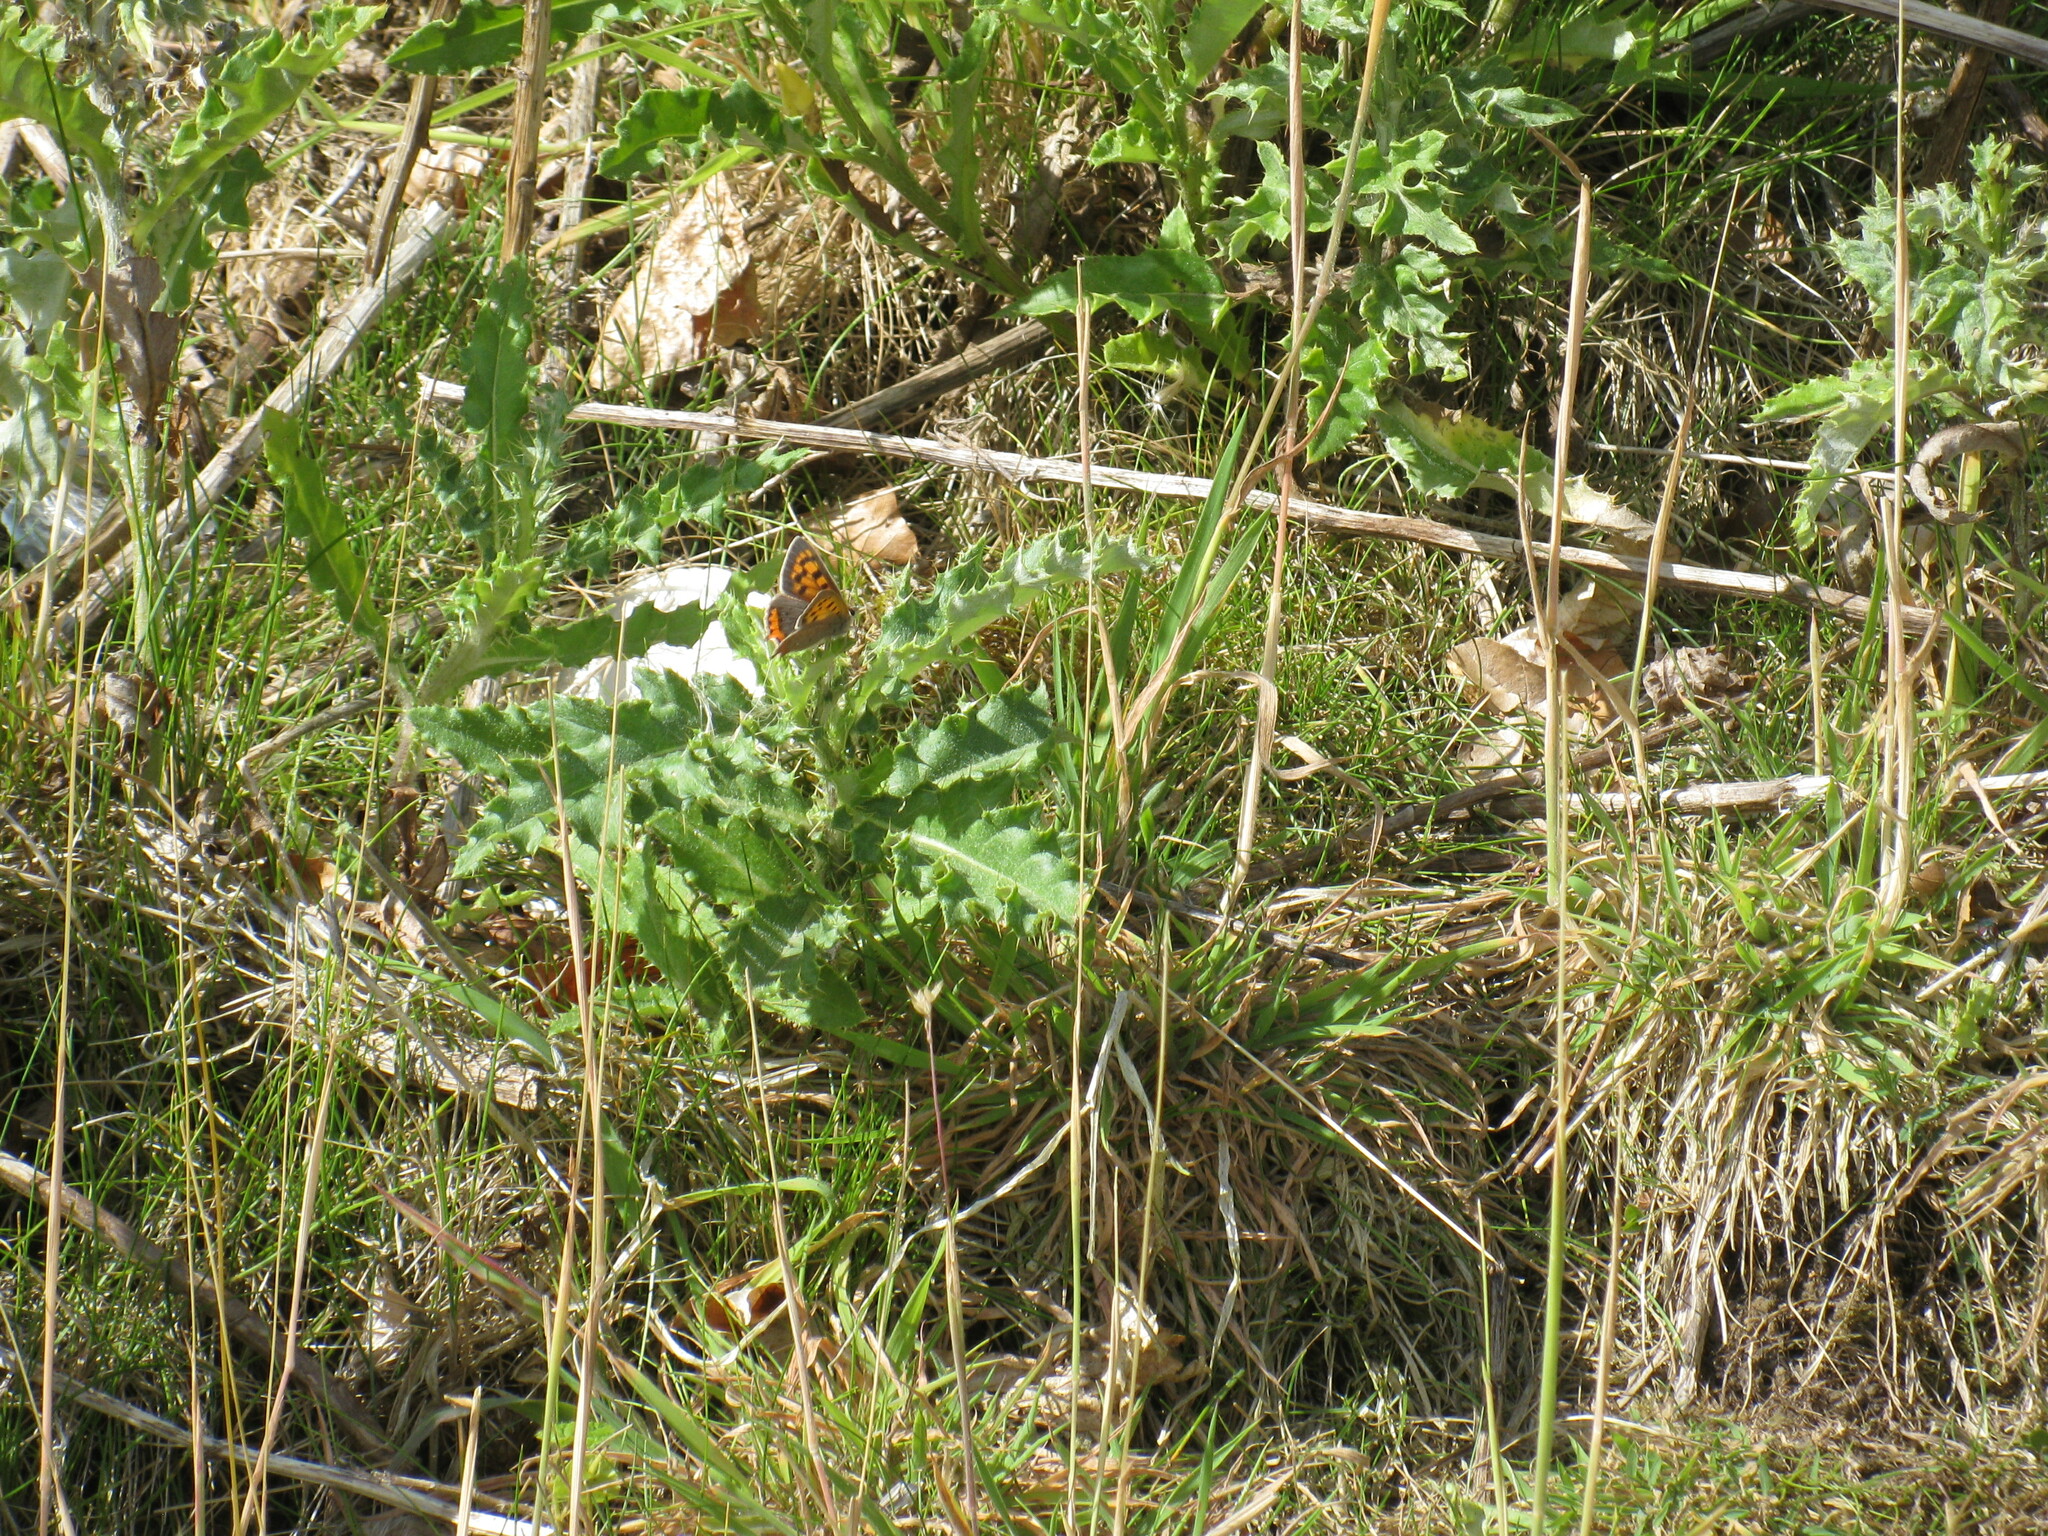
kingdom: Animalia
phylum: Arthropoda
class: Insecta
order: Lepidoptera
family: Lycaenidae
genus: Lycaena
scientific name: Lycaena phlaeas
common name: Small copper
